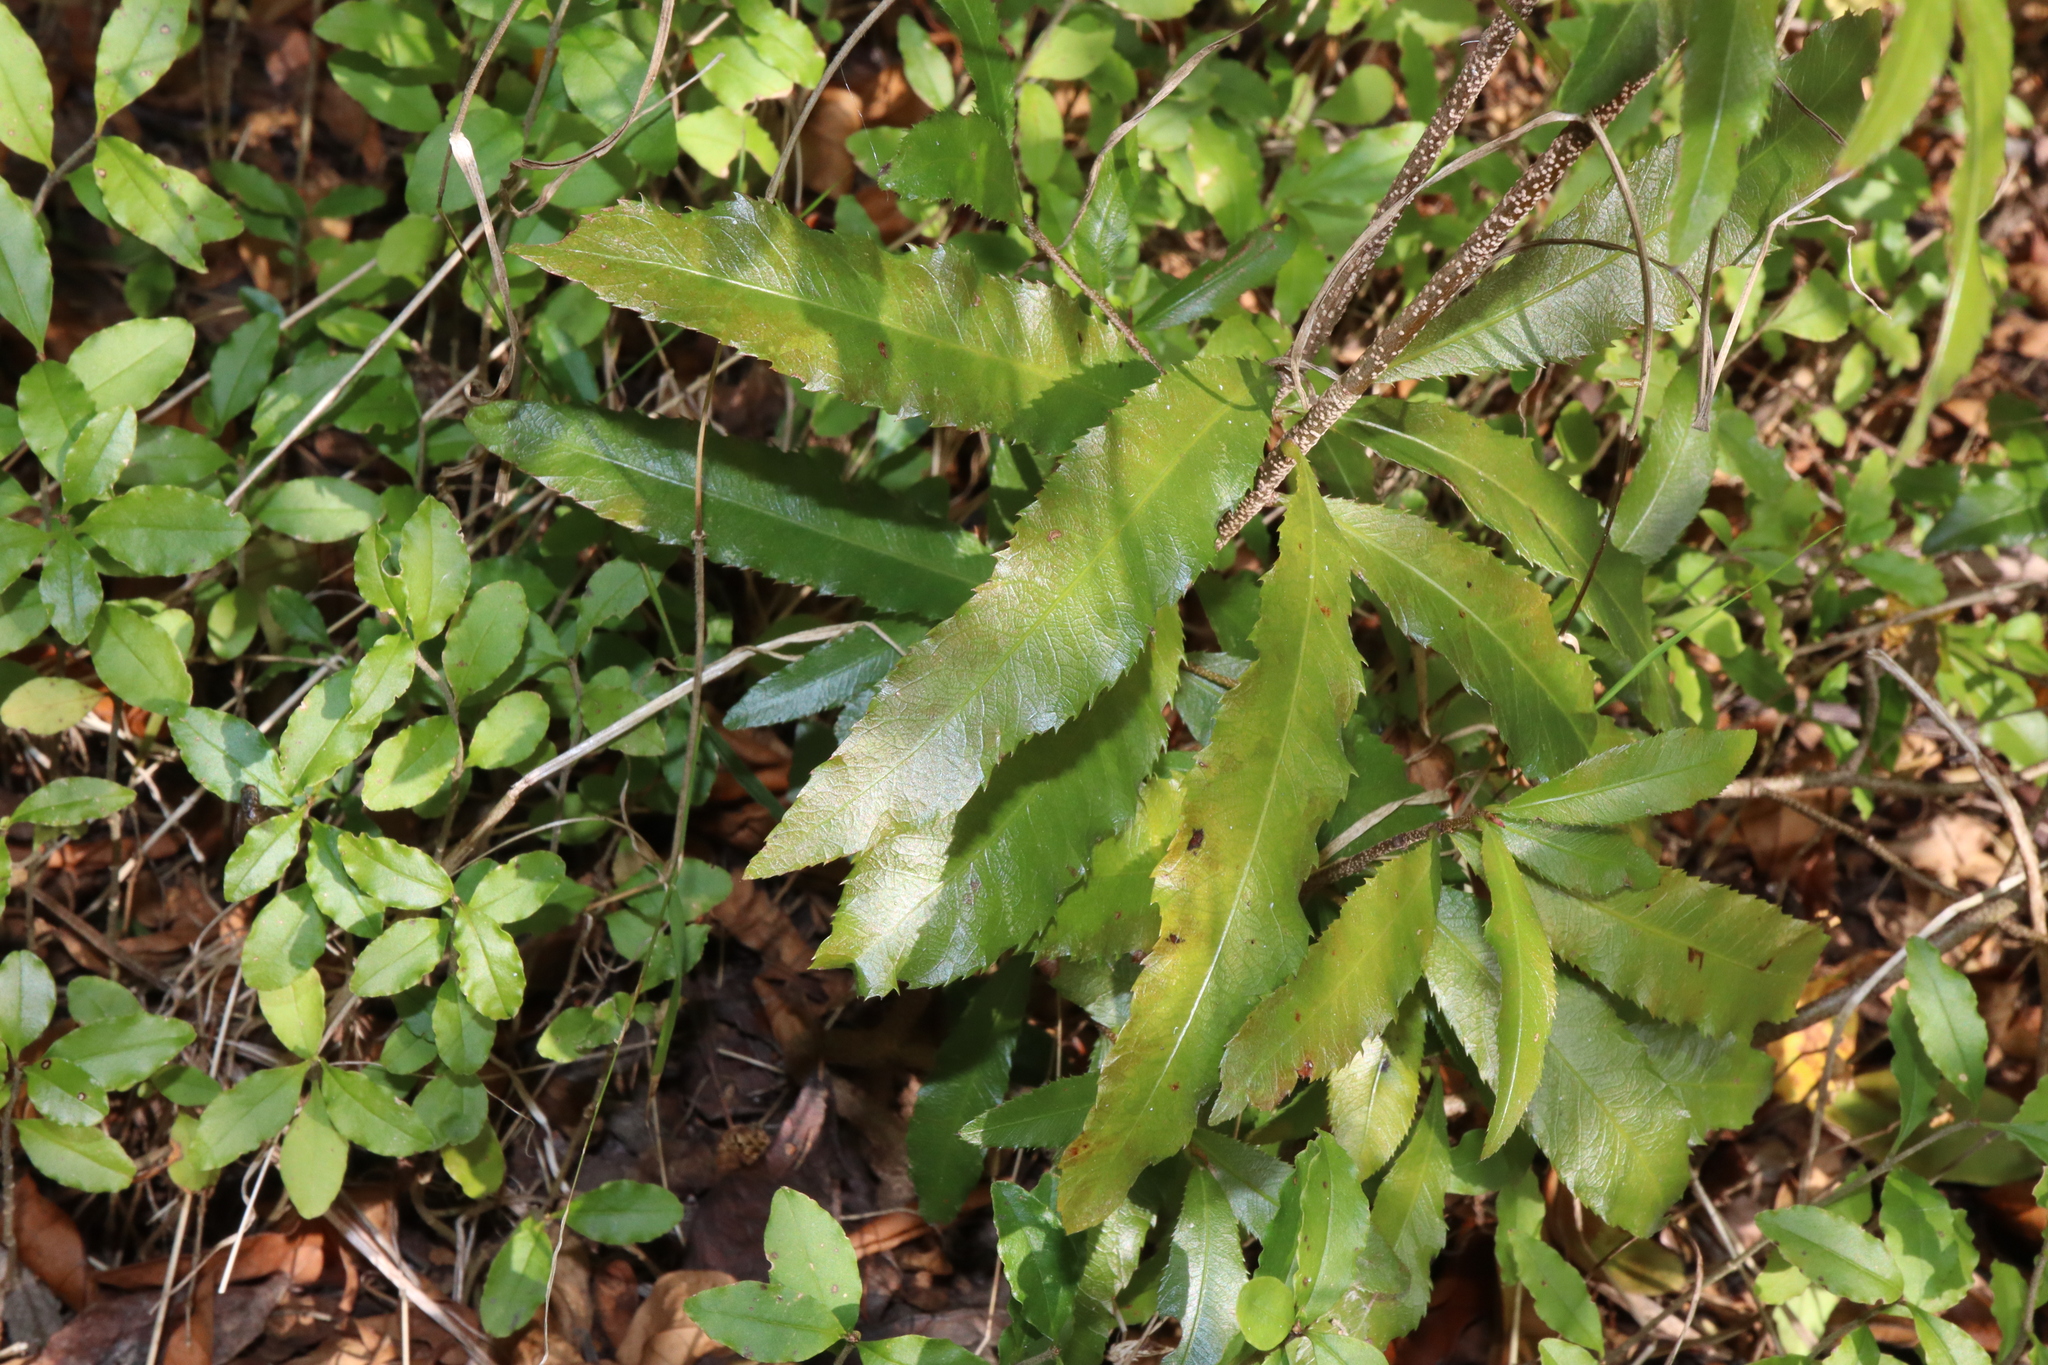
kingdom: Plantae
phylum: Tracheophyta
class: Magnoliopsida
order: Malpighiales
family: Ochnaceae
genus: Ochna
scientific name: Ochna serrulata
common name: Mickey mouse plant
